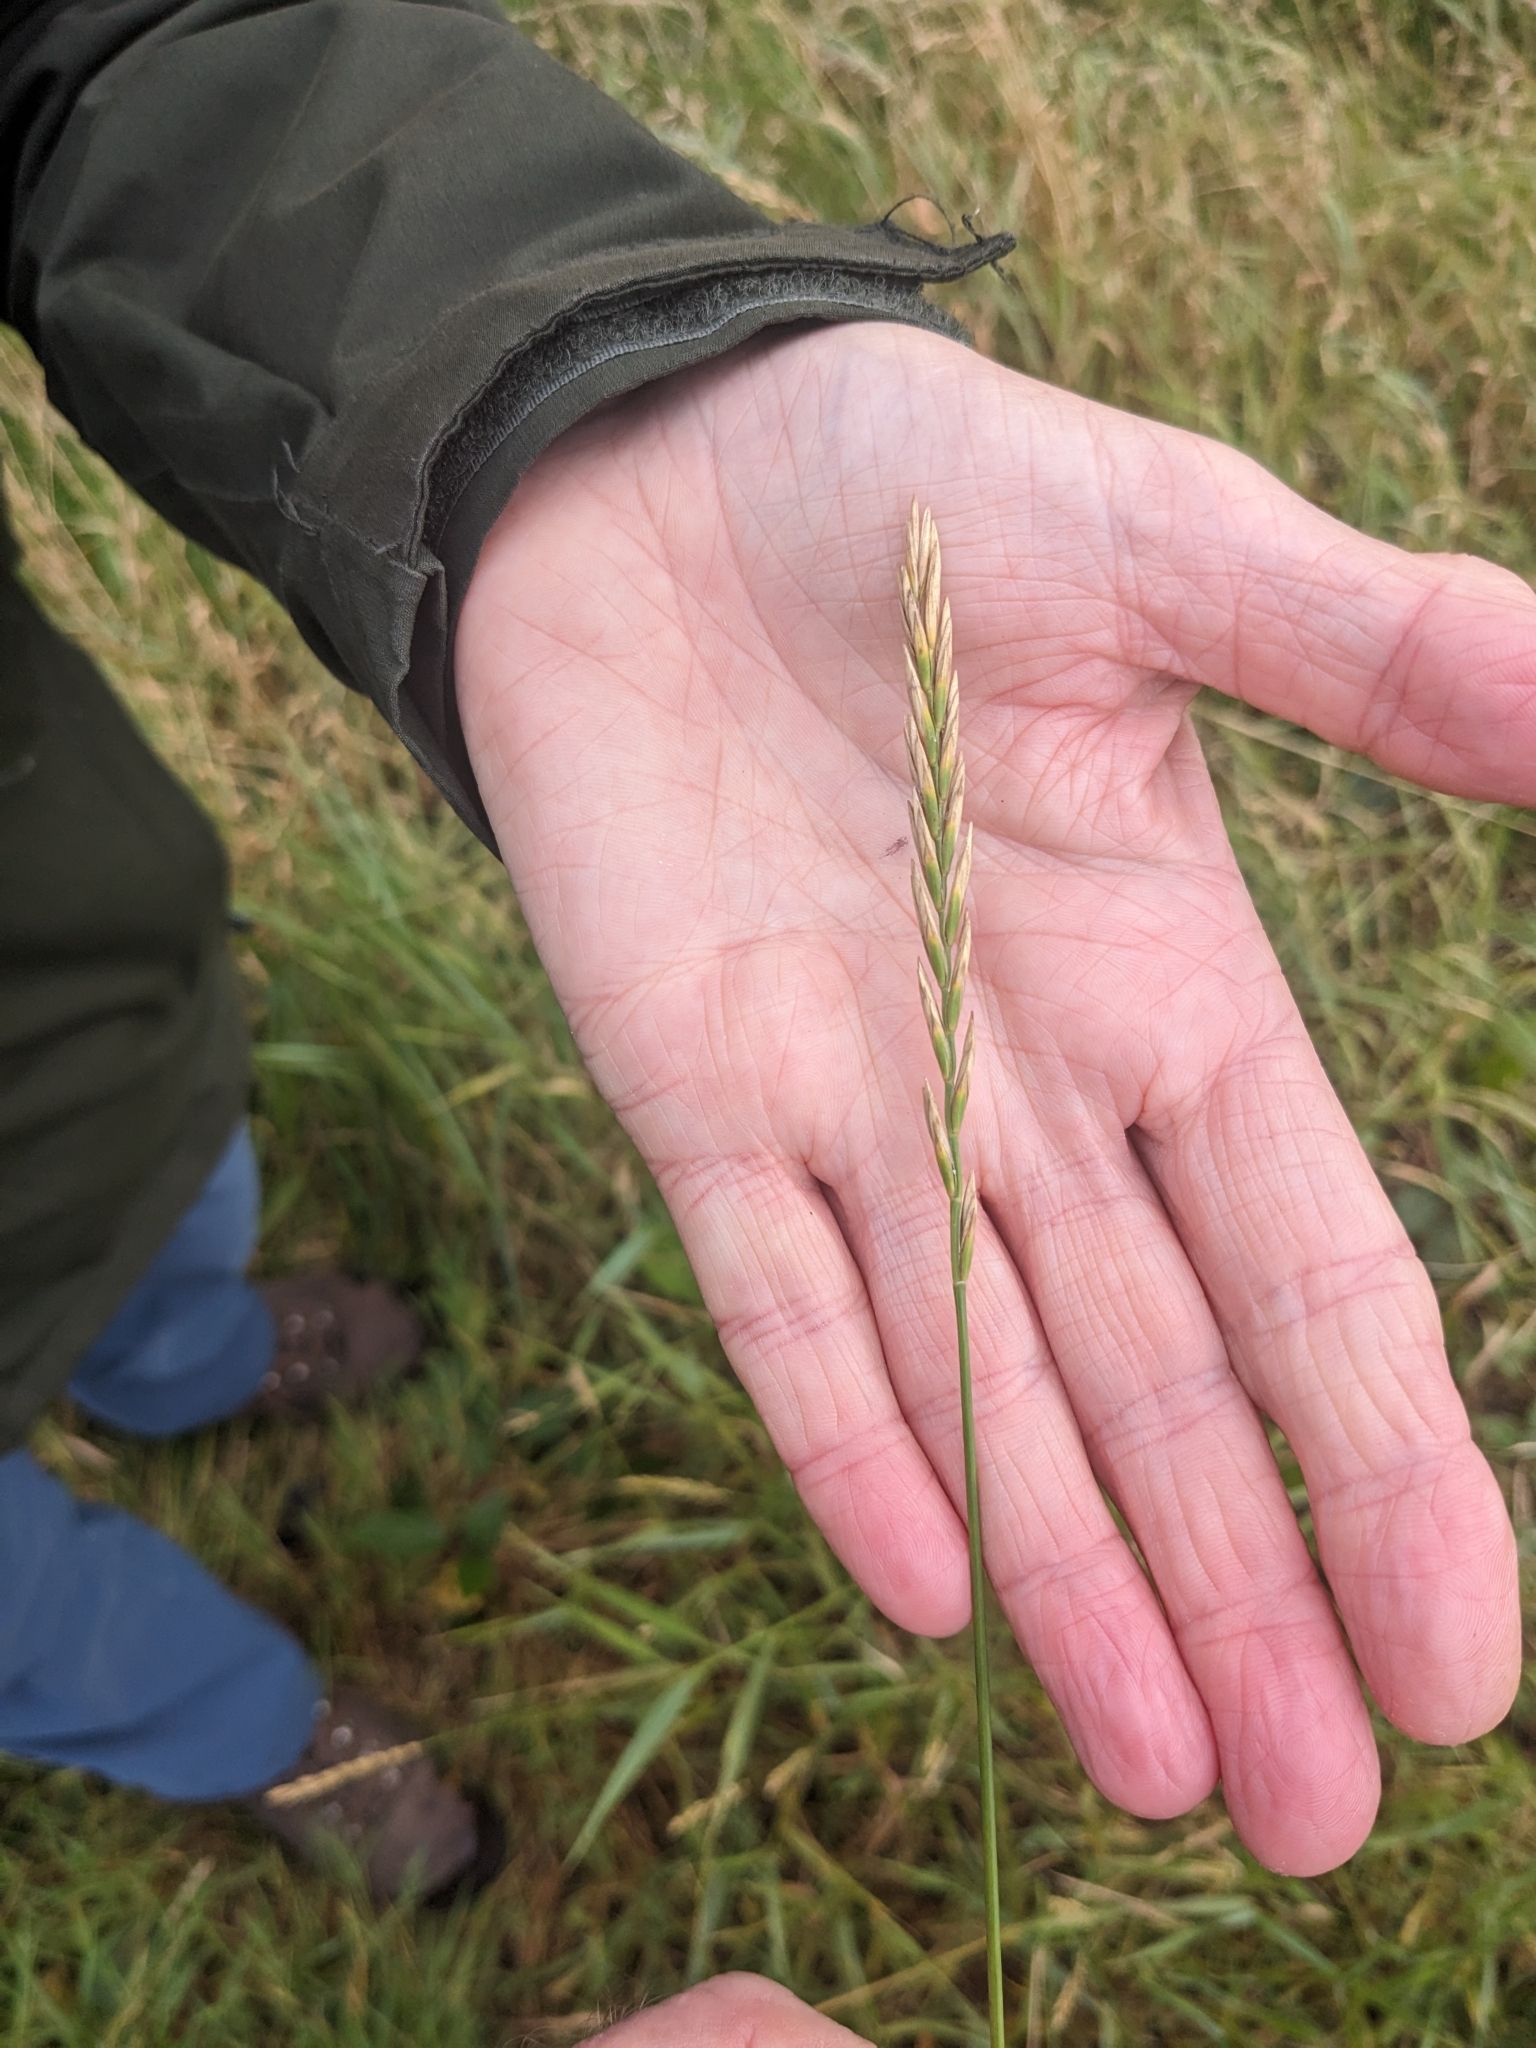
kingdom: Plantae
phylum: Tracheophyta
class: Liliopsida
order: Poales
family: Poaceae
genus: Elymus
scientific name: Elymus repens
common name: Quackgrass
